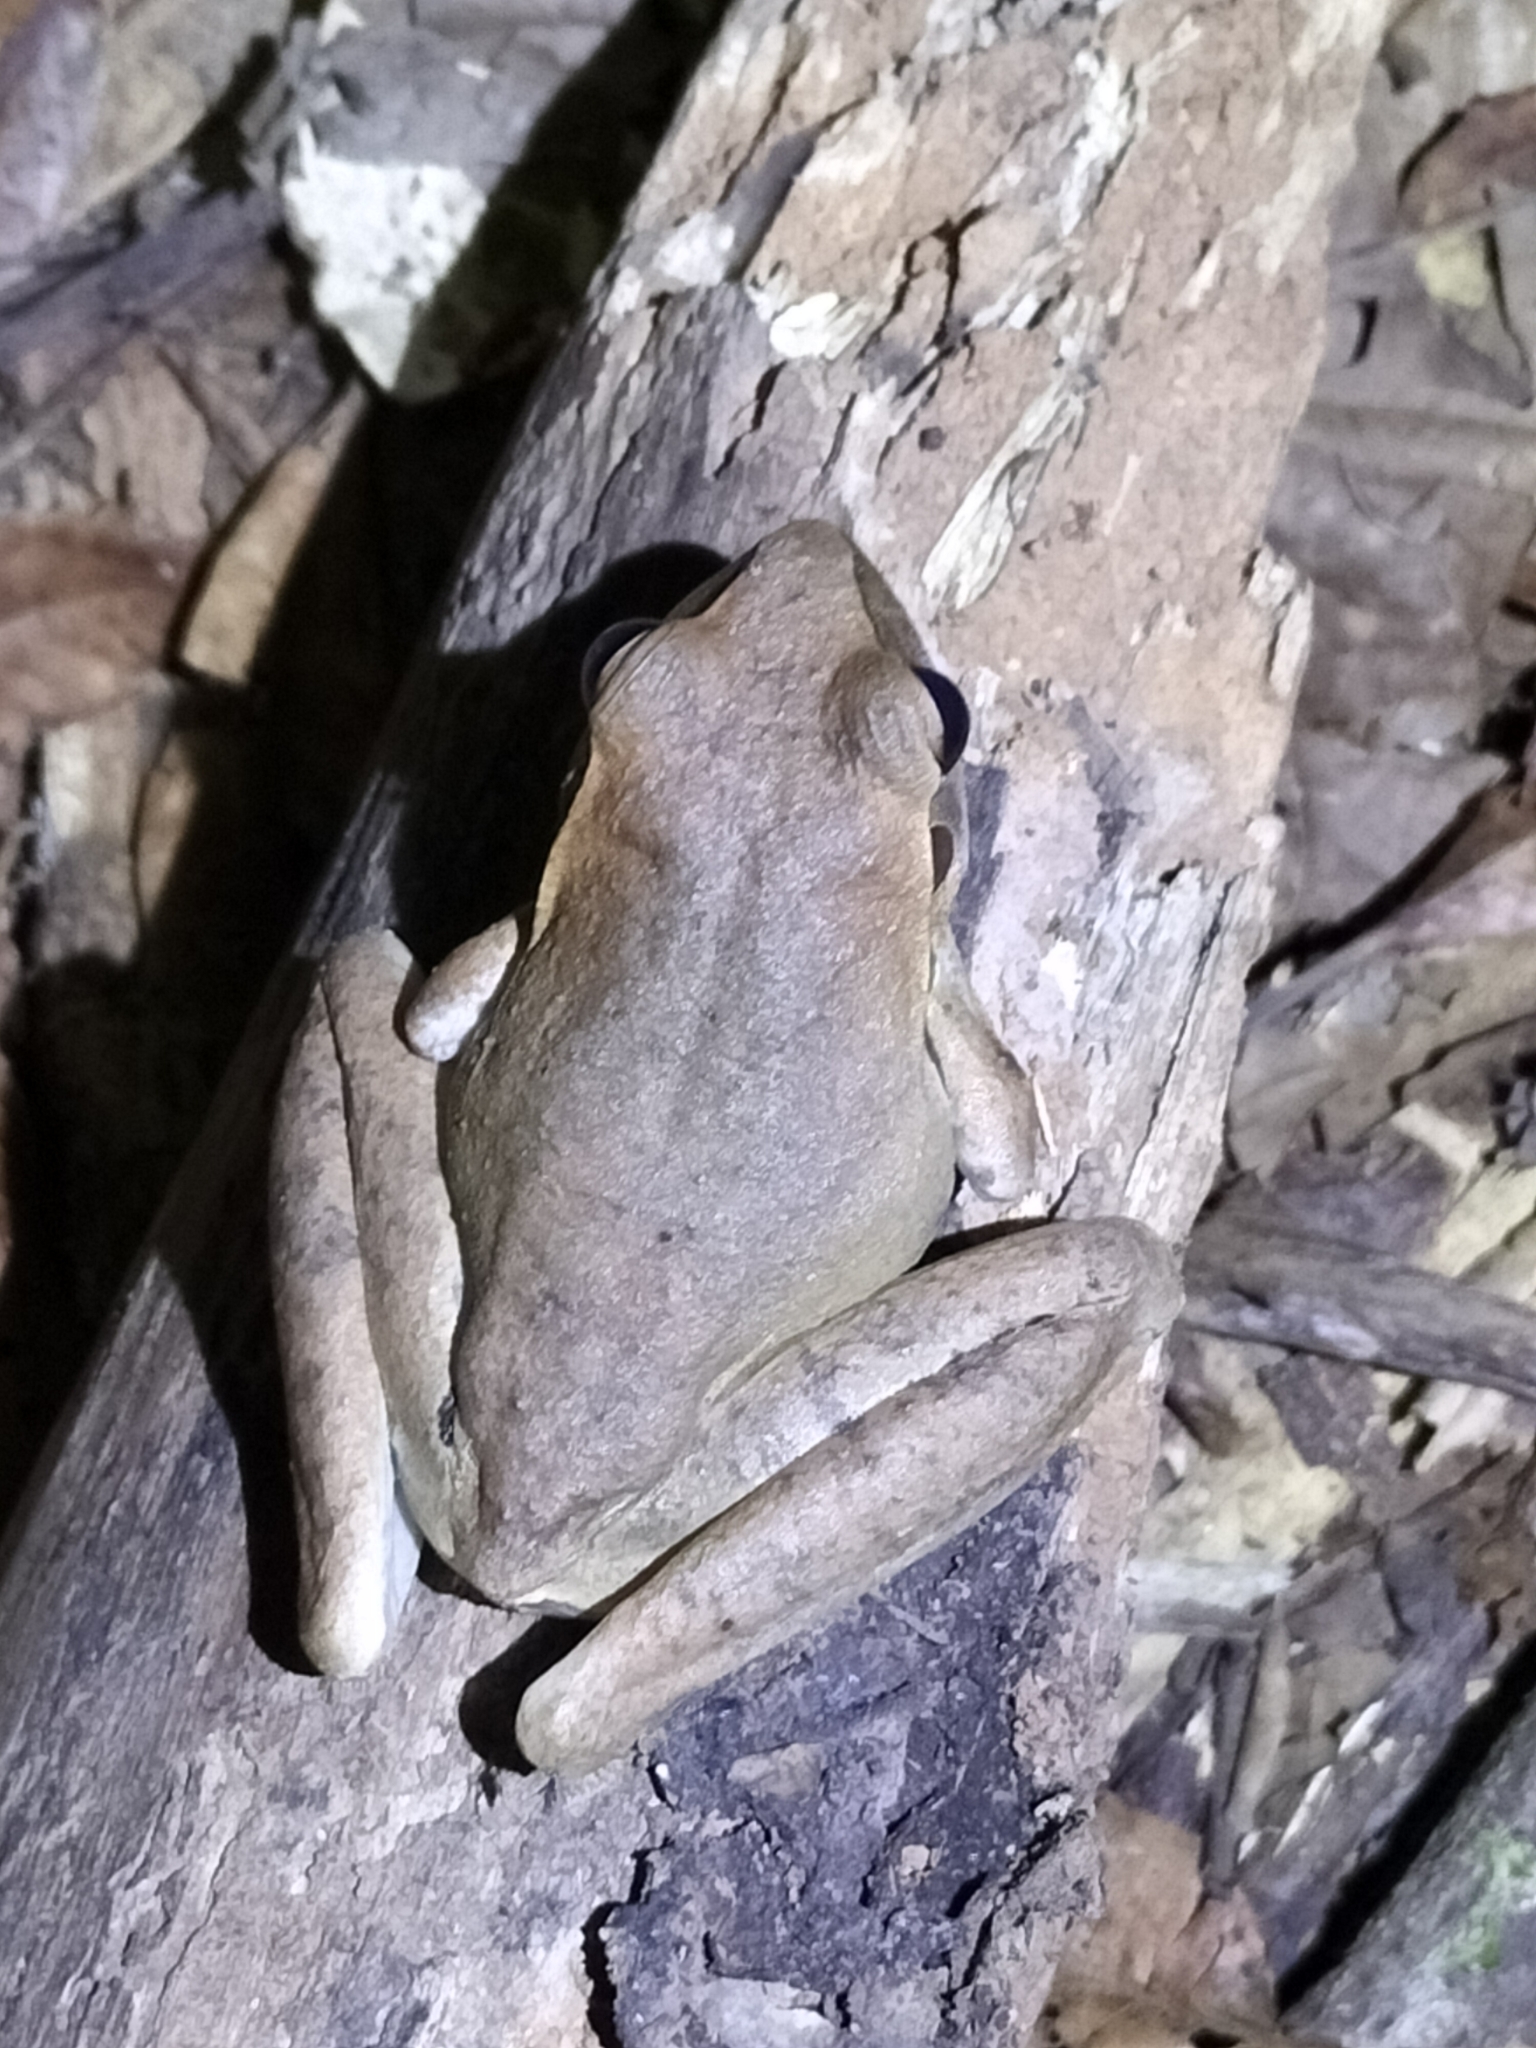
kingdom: Animalia
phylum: Chordata
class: Amphibia
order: Anura
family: Hylidae
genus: Ranoidea
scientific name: Ranoidea
